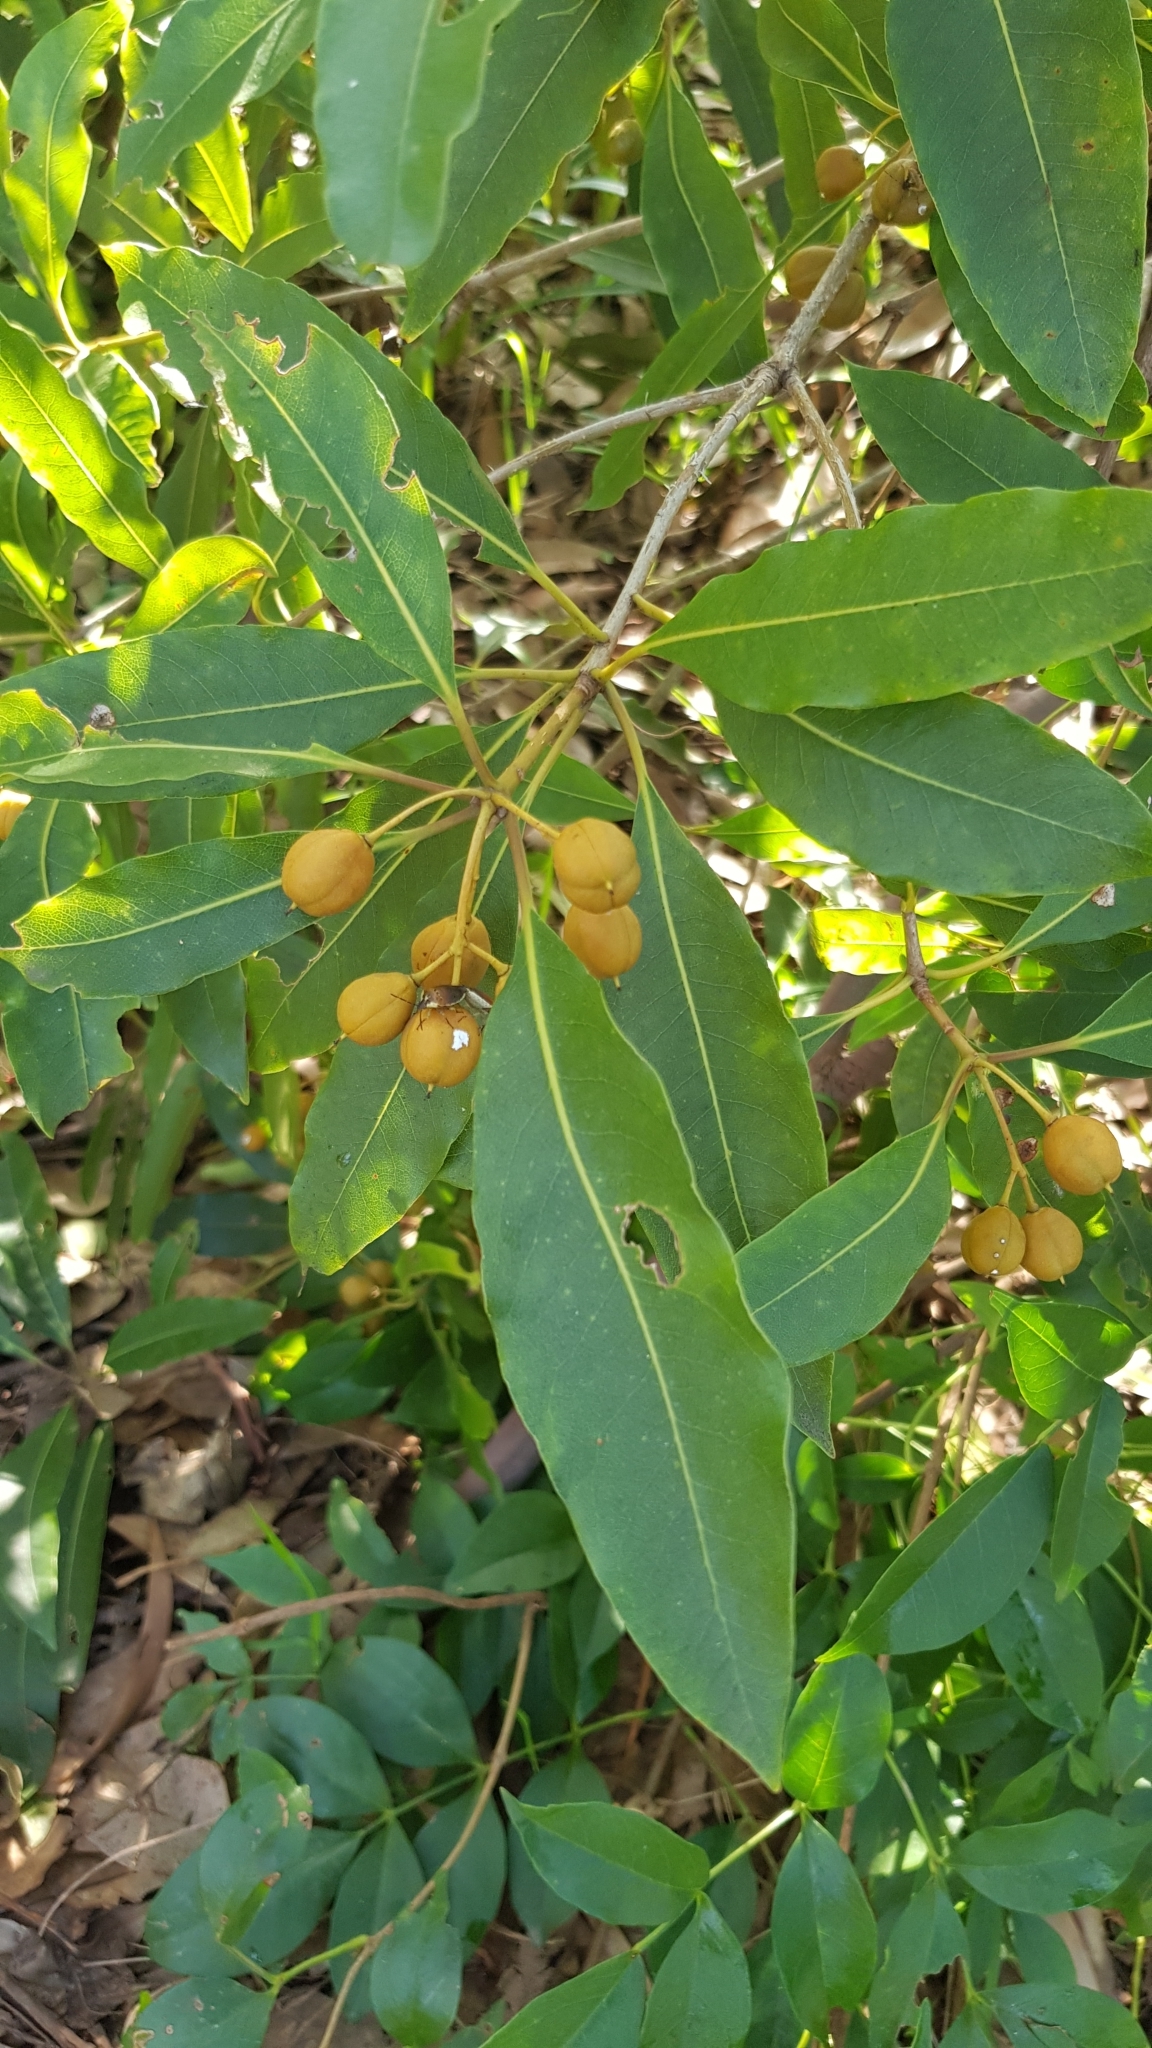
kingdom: Plantae
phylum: Tracheophyta
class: Magnoliopsida
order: Apiales
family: Pittosporaceae
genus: Pittosporum
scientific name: Pittosporum undulatum
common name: Australian cheesewood
